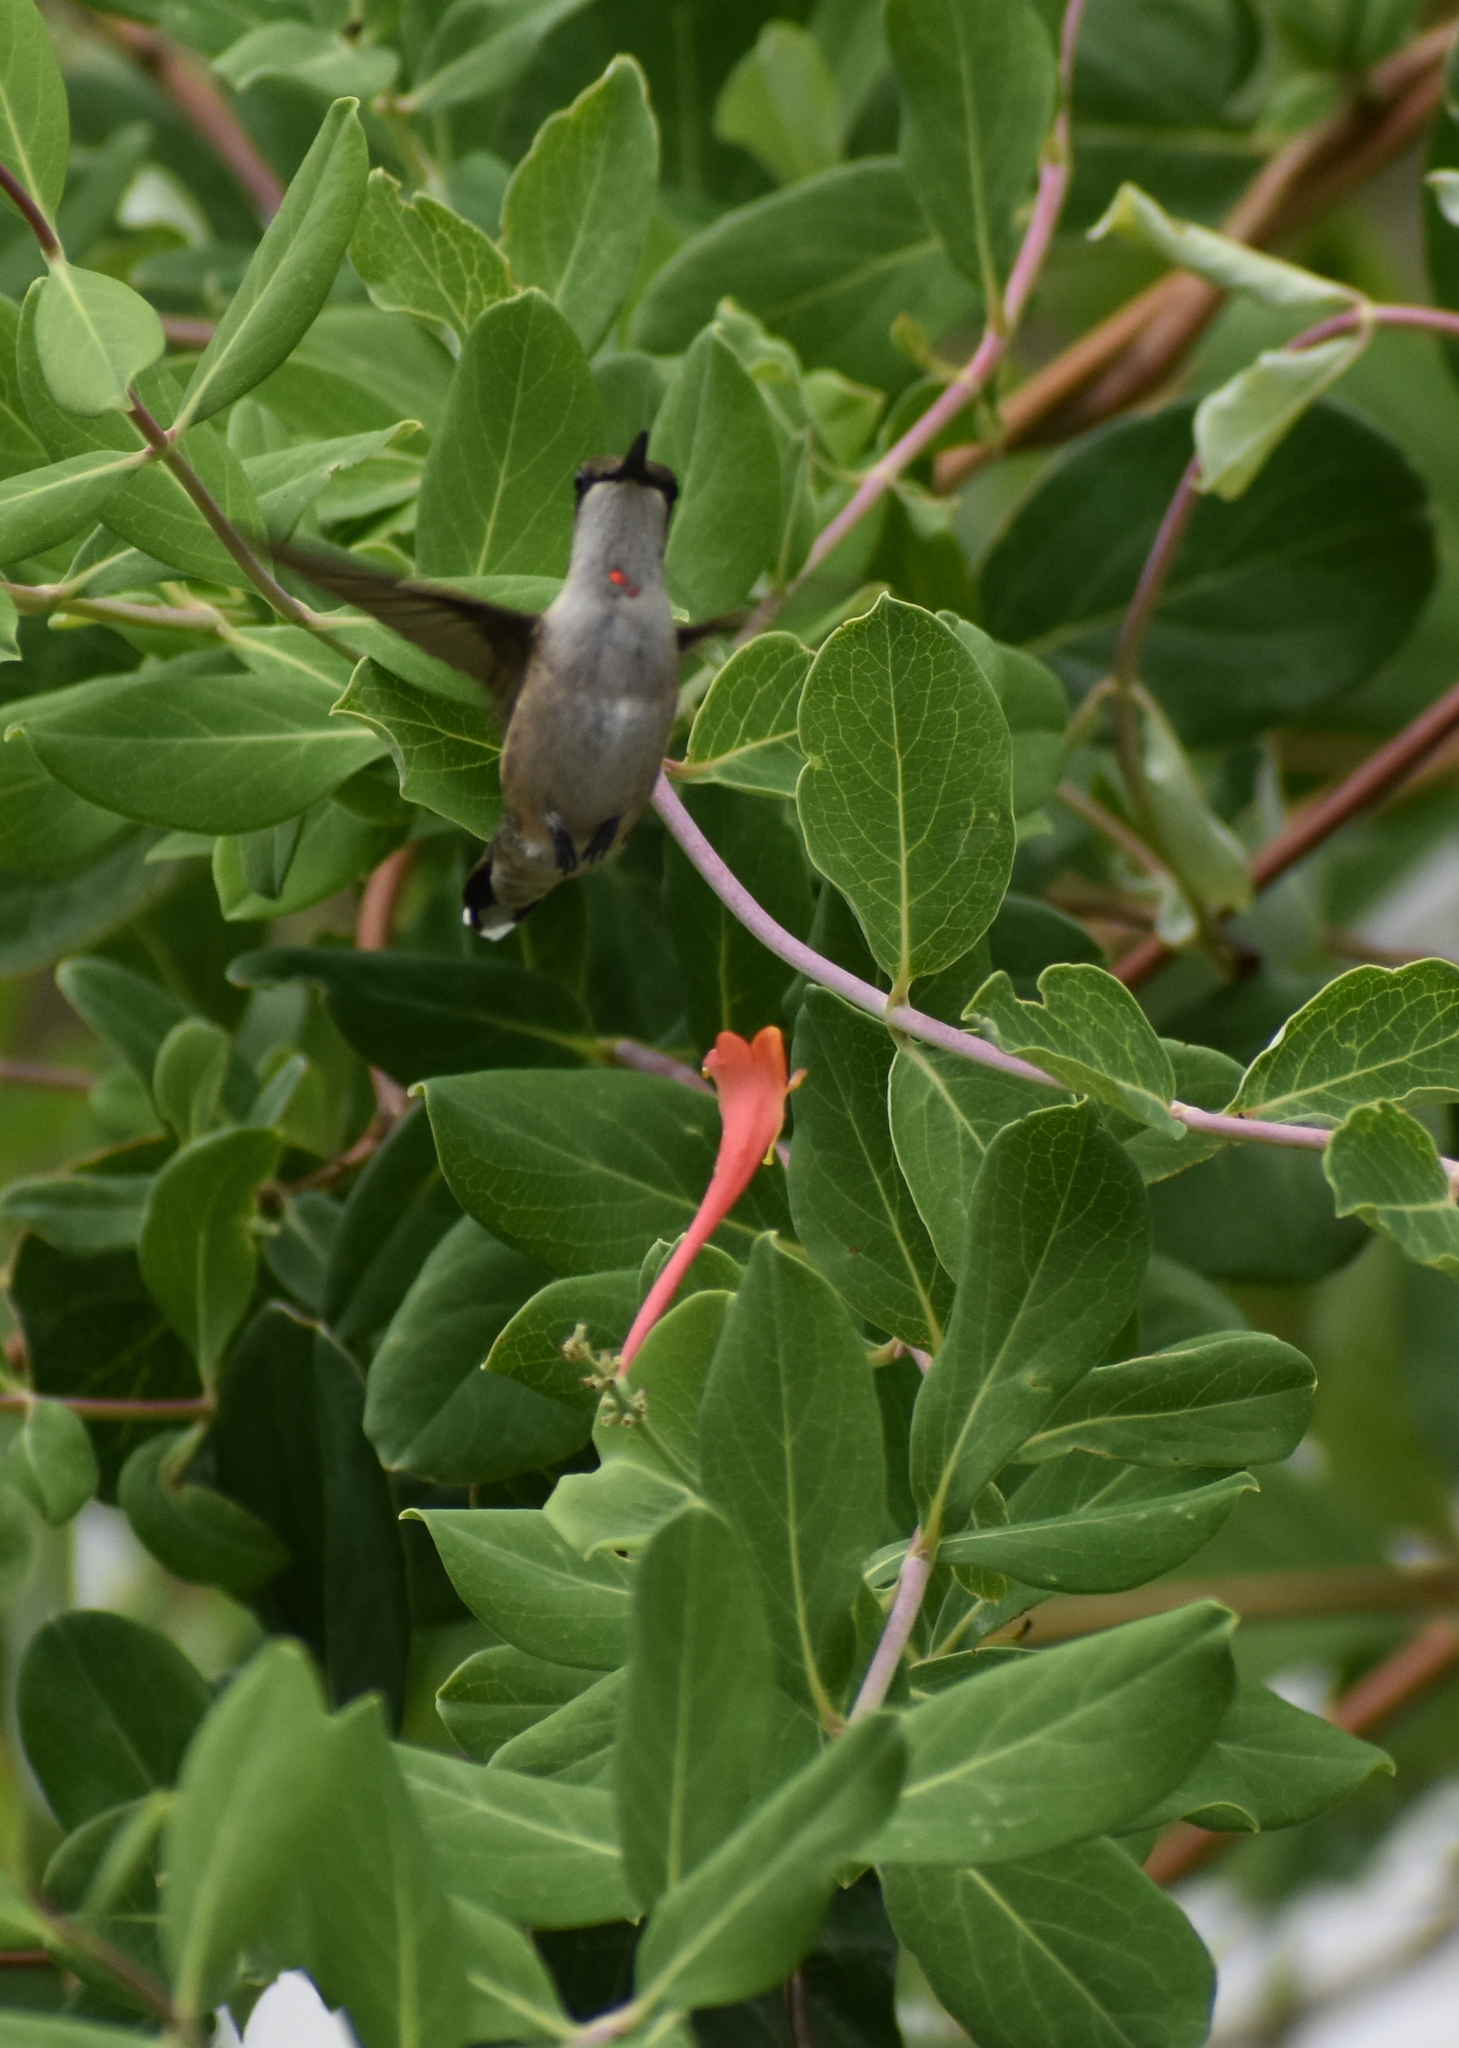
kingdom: Animalia
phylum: Chordata
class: Aves
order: Apodiformes
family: Trochilidae
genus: Archilochus
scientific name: Archilochus colubris
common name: Ruby-throated hummingbird
